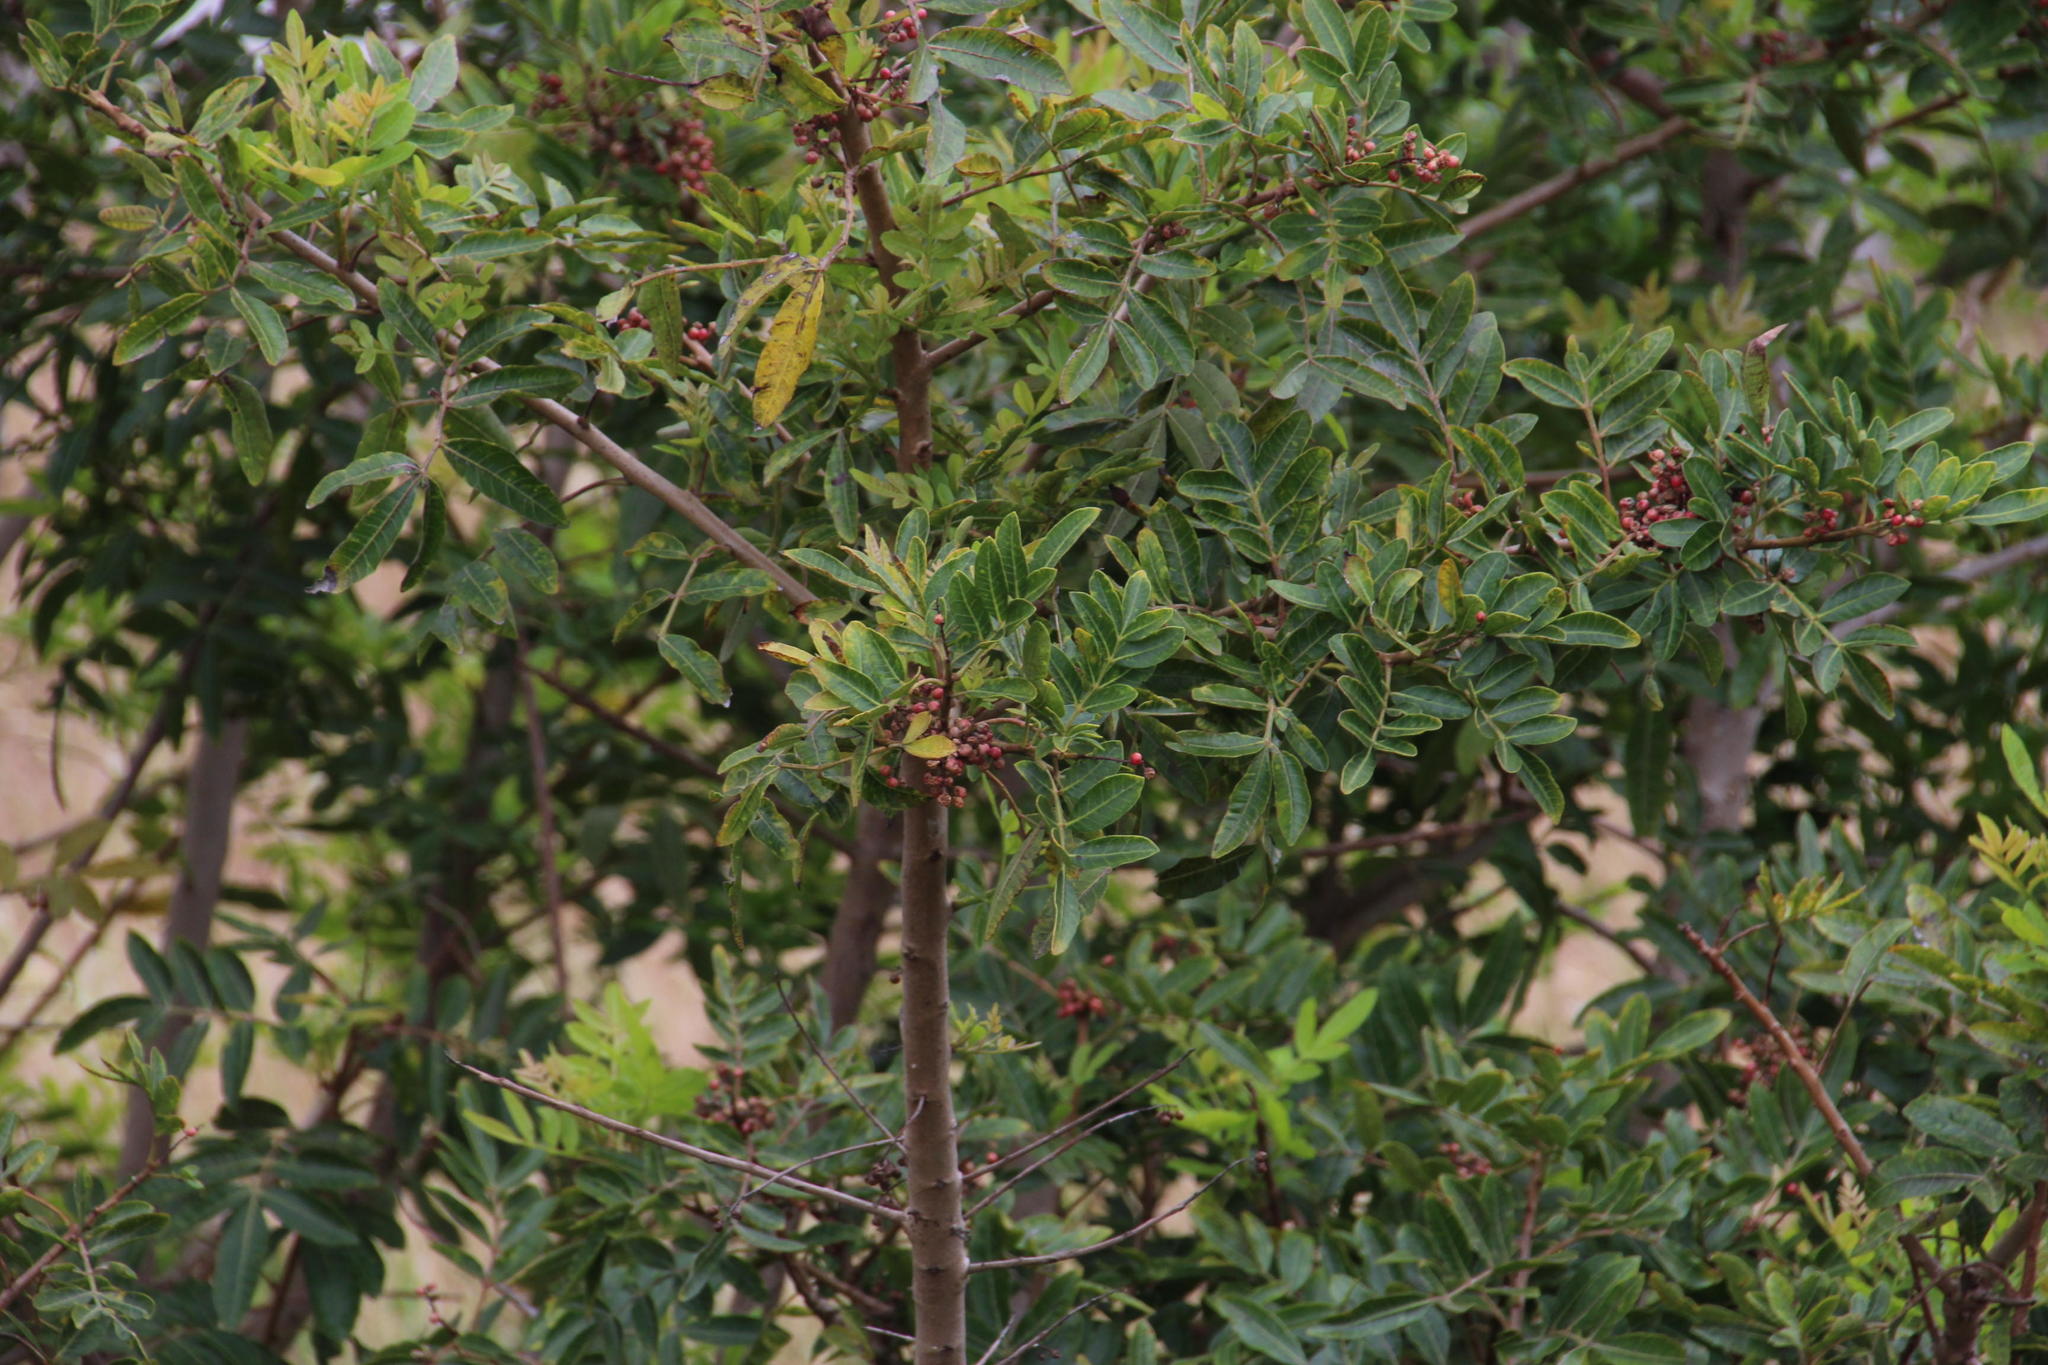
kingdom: Plantae
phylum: Tracheophyta
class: Magnoliopsida
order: Sapindales
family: Anacardiaceae
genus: Schinus
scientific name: Schinus terebinthifolia
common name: Brazilian peppertree
